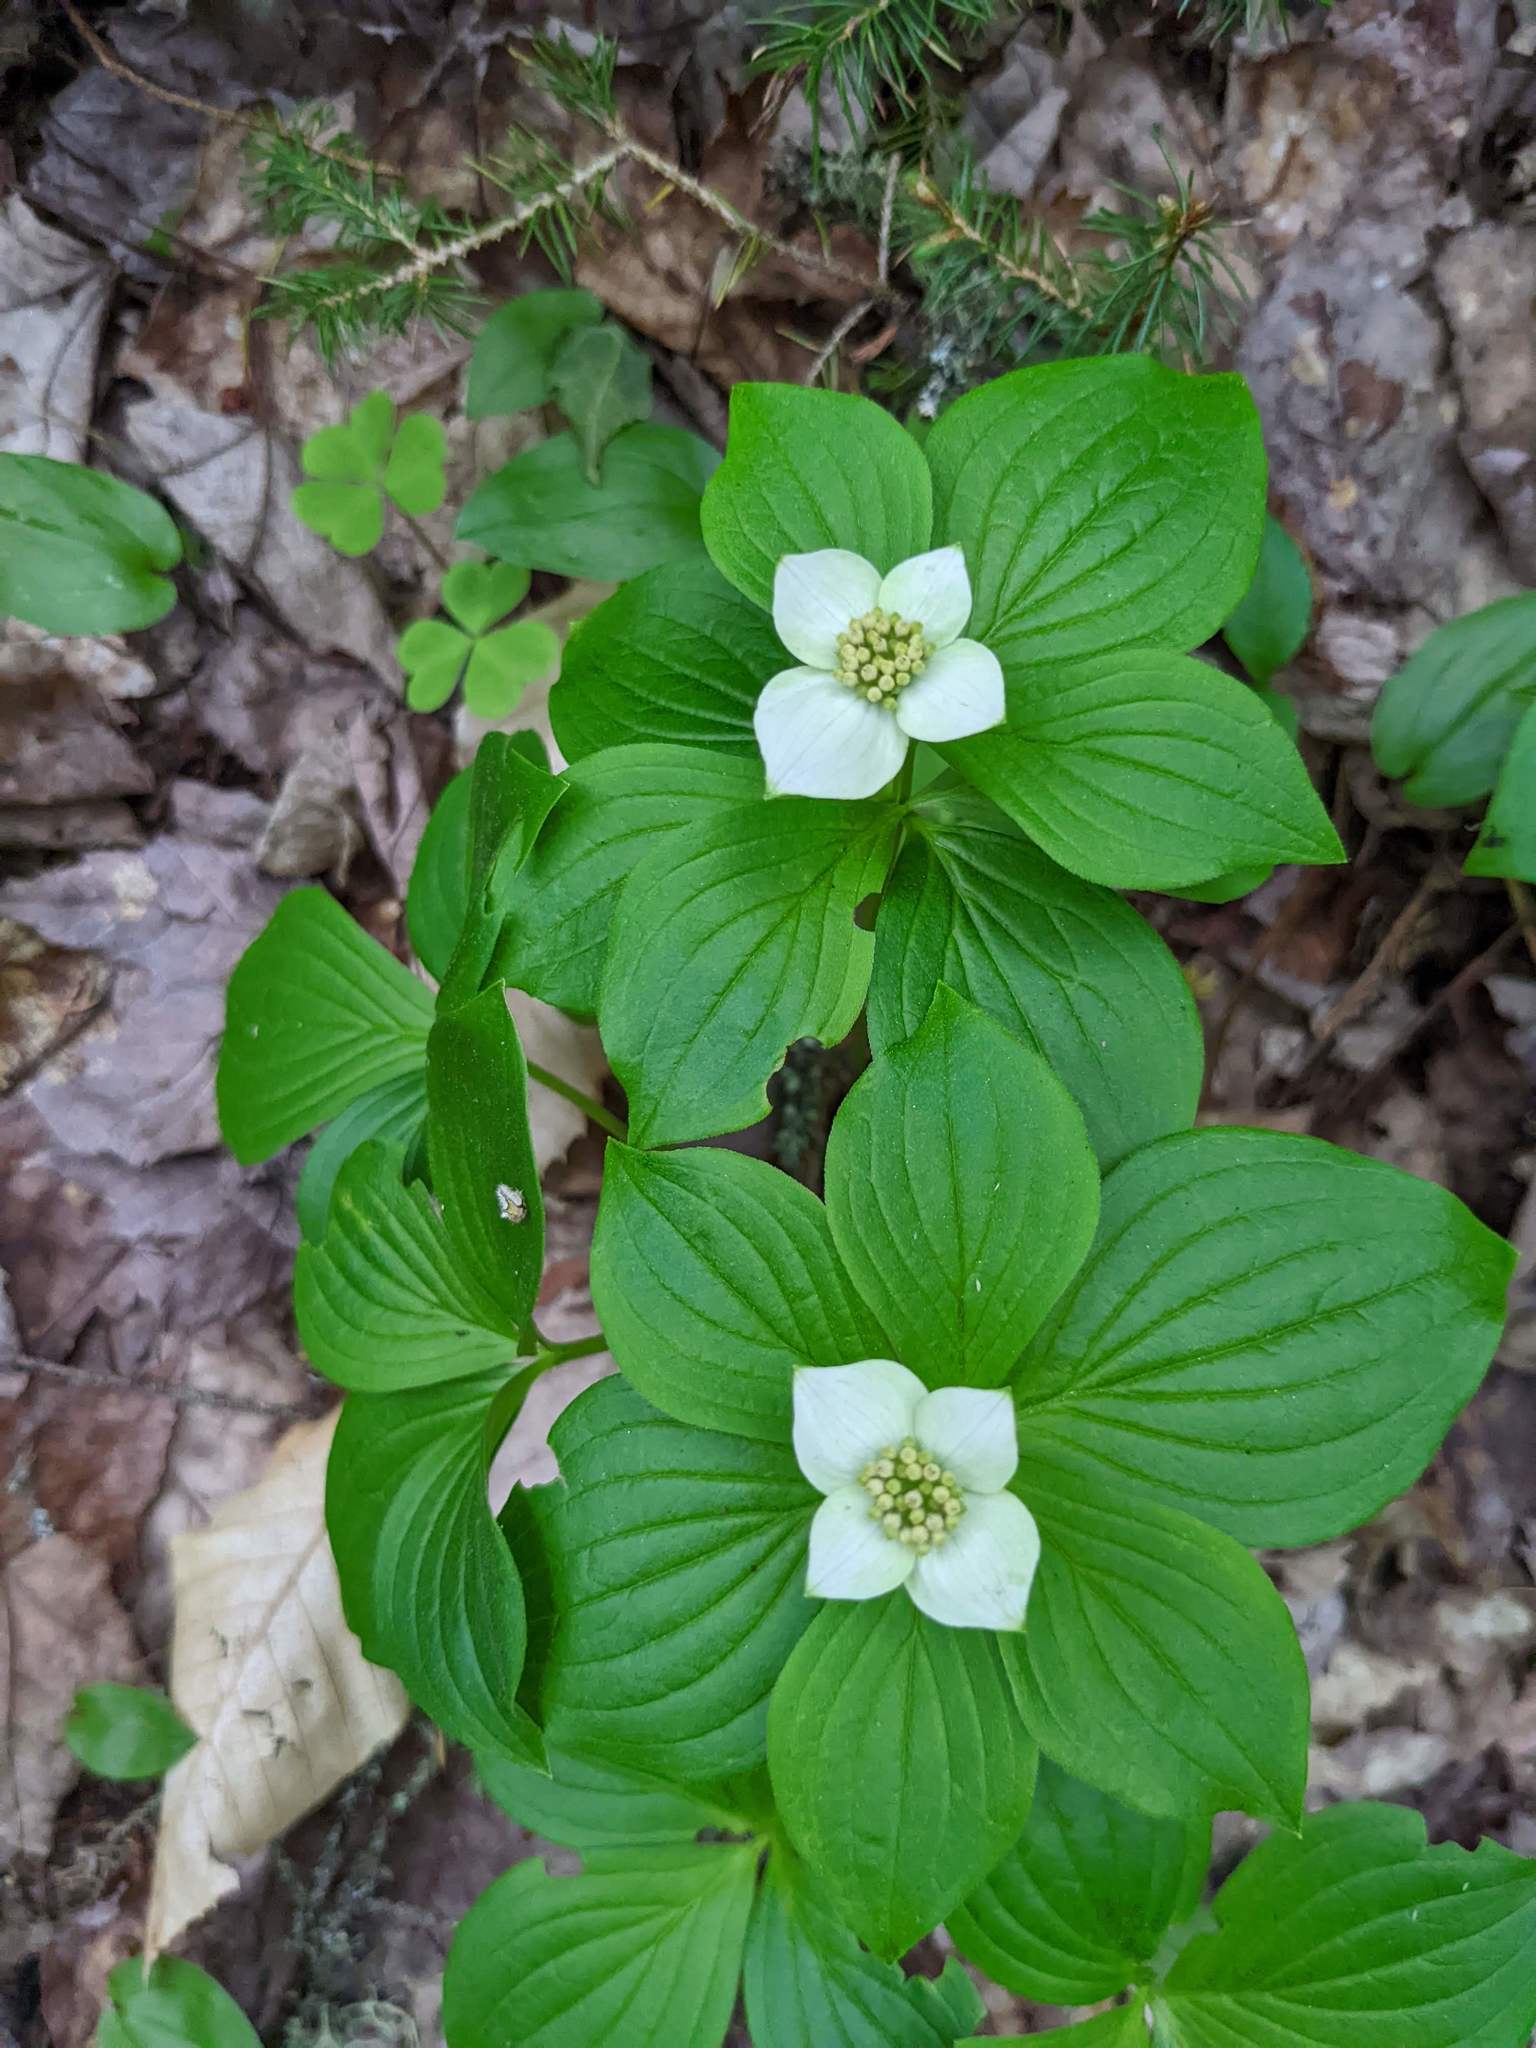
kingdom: Plantae
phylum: Tracheophyta
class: Magnoliopsida
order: Cornales
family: Cornaceae
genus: Cornus
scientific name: Cornus canadensis
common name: Creeping dogwood
